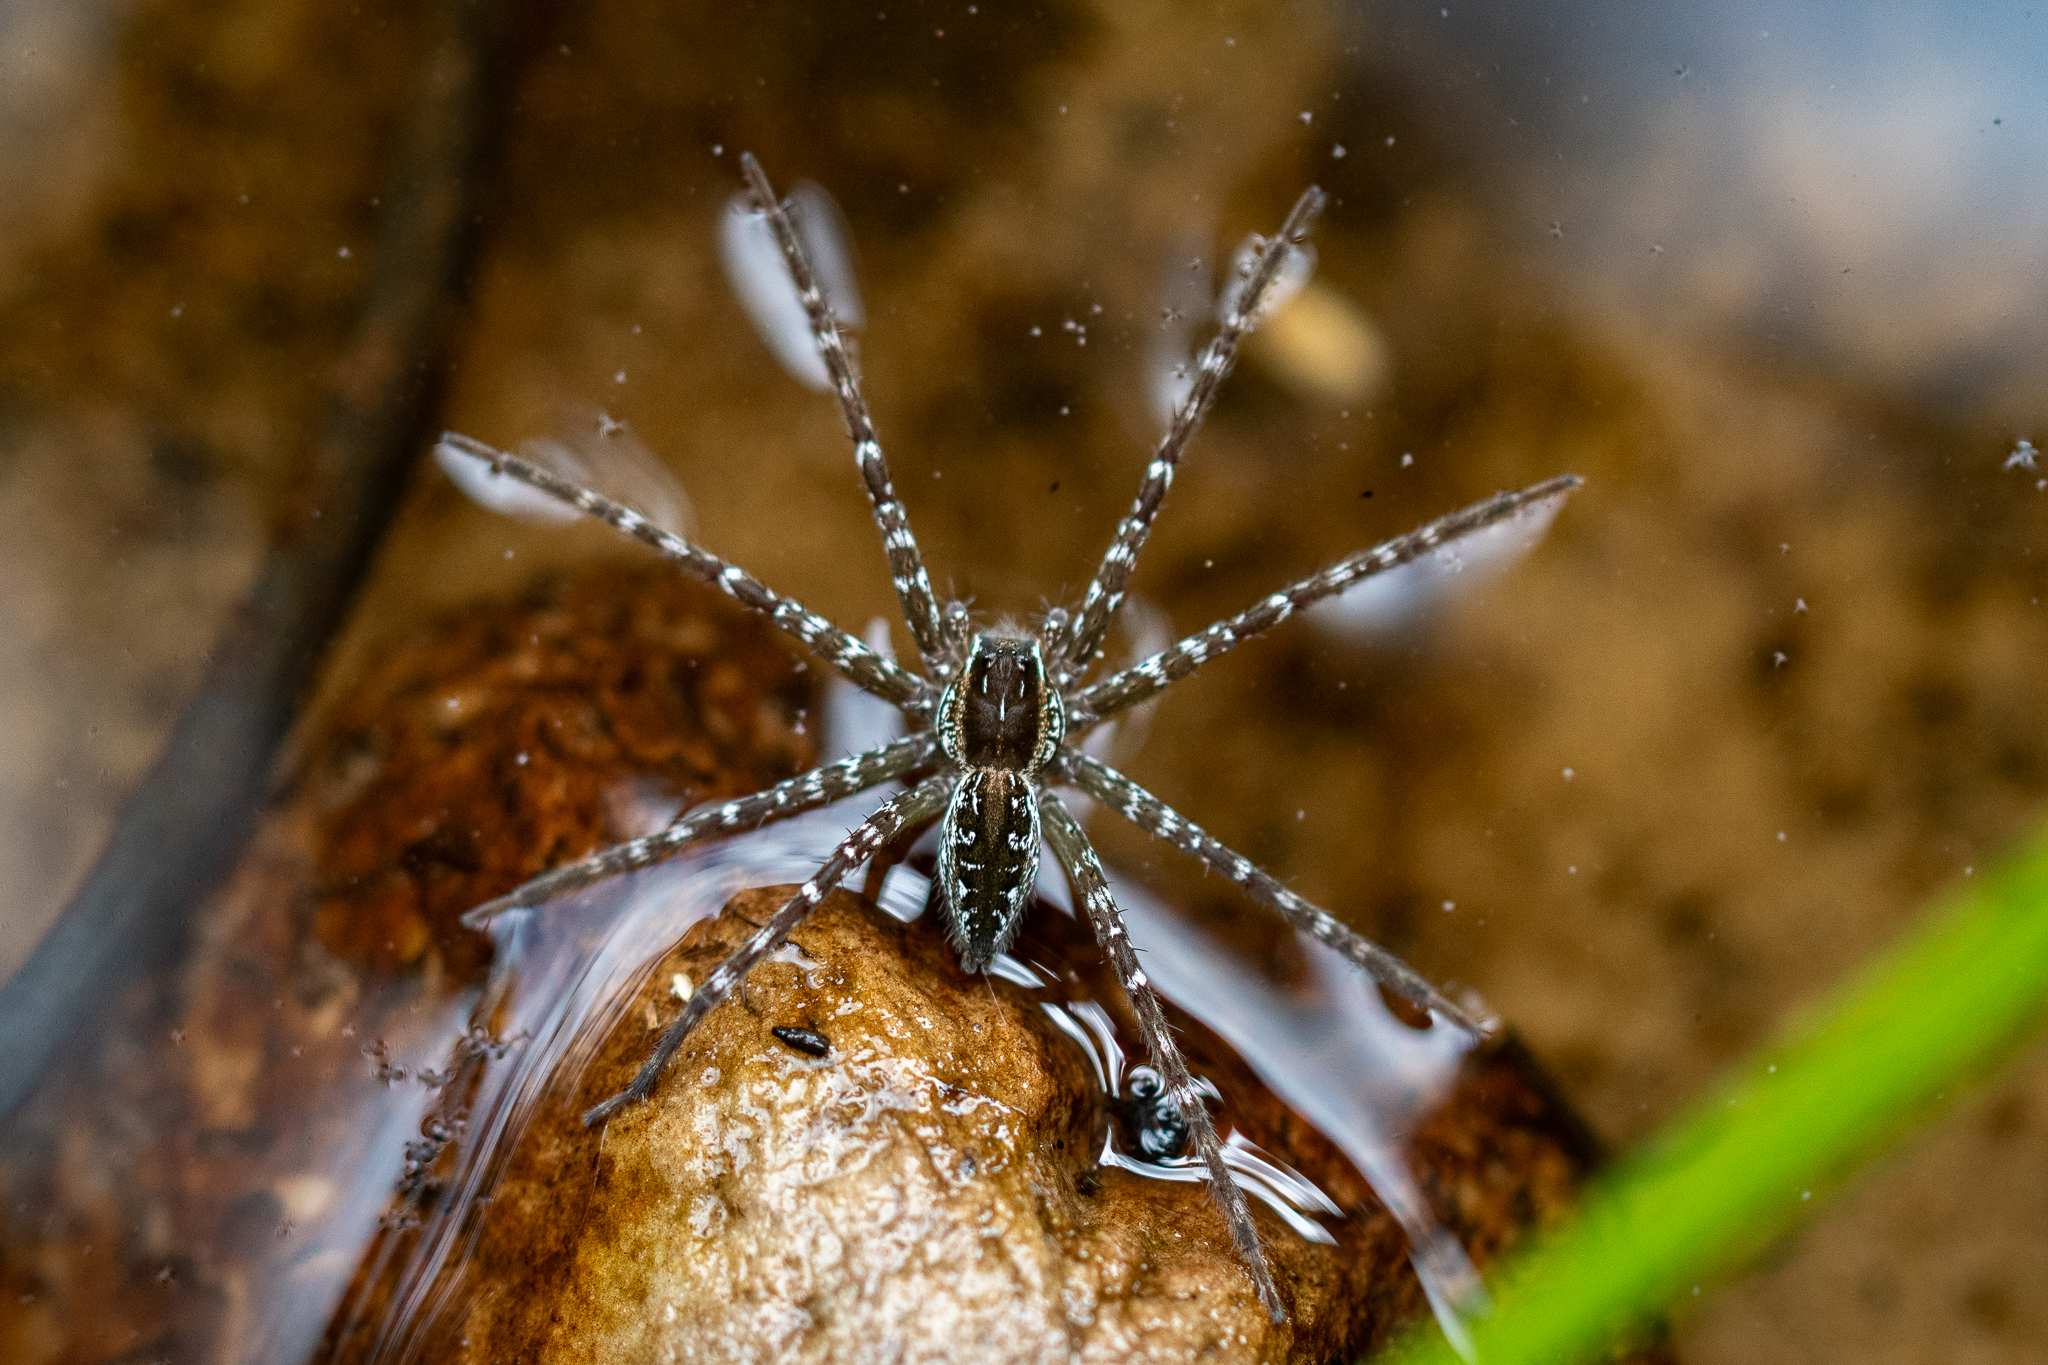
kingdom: Animalia
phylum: Arthropoda
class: Arachnida
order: Araneae
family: Pisauridae
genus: Nilus
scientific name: Nilus curtus
